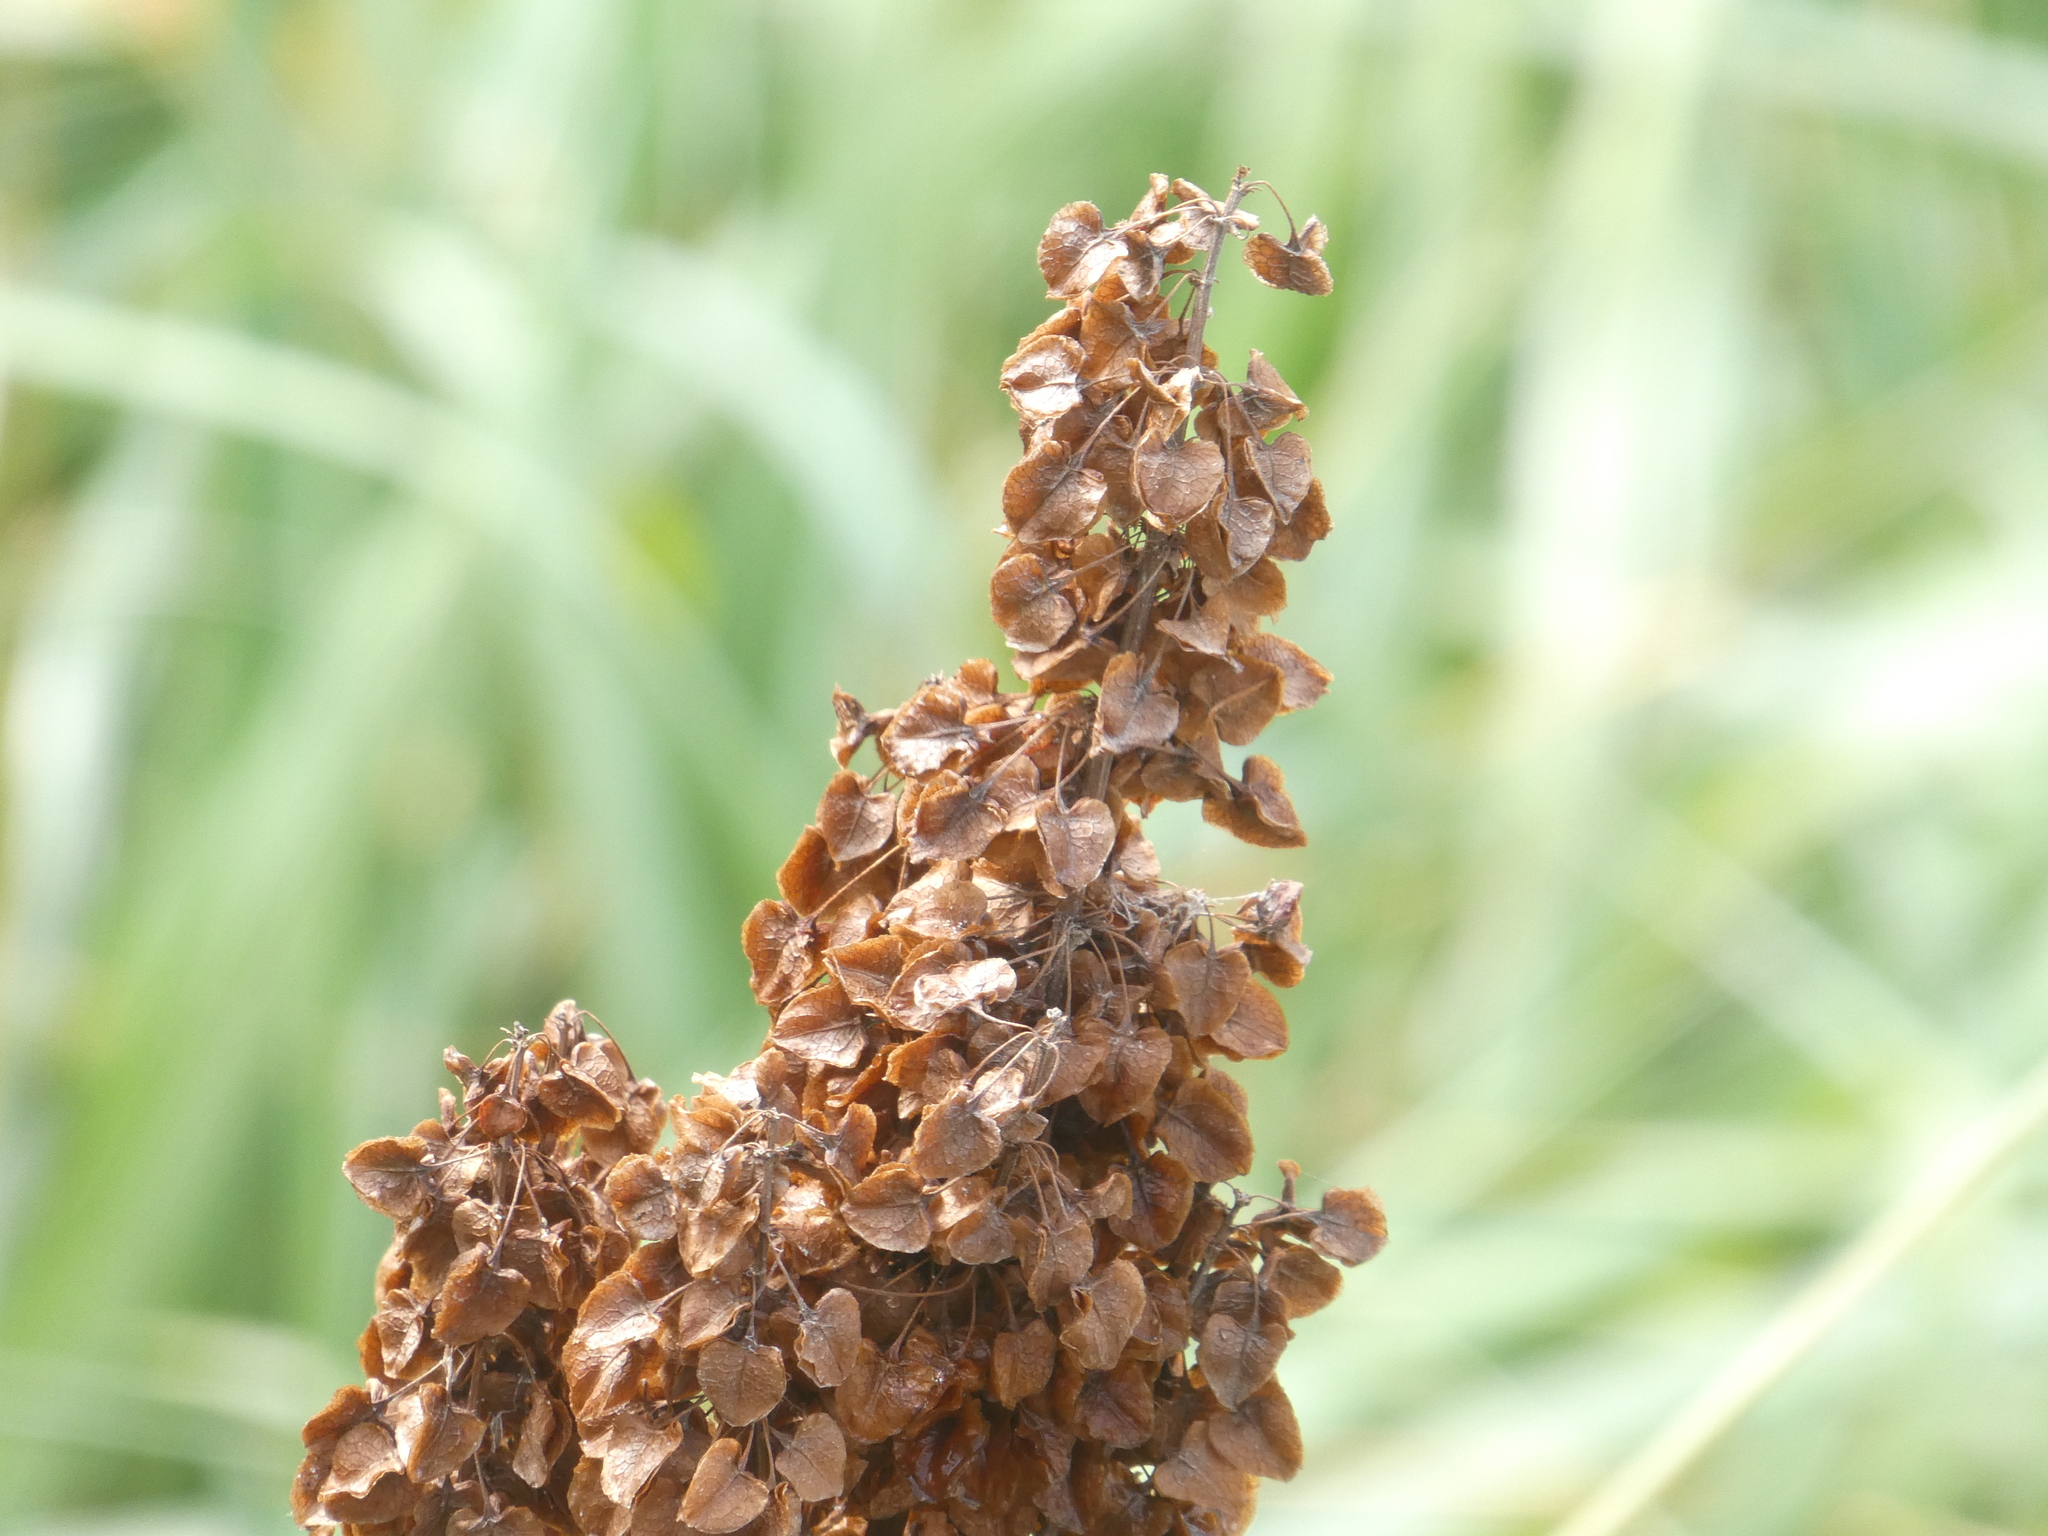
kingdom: Plantae
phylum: Tracheophyta
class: Magnoliopsida
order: Caryophyllales
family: Polygonaceae
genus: Rumex
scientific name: Rumex occidentalis
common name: Western dock
